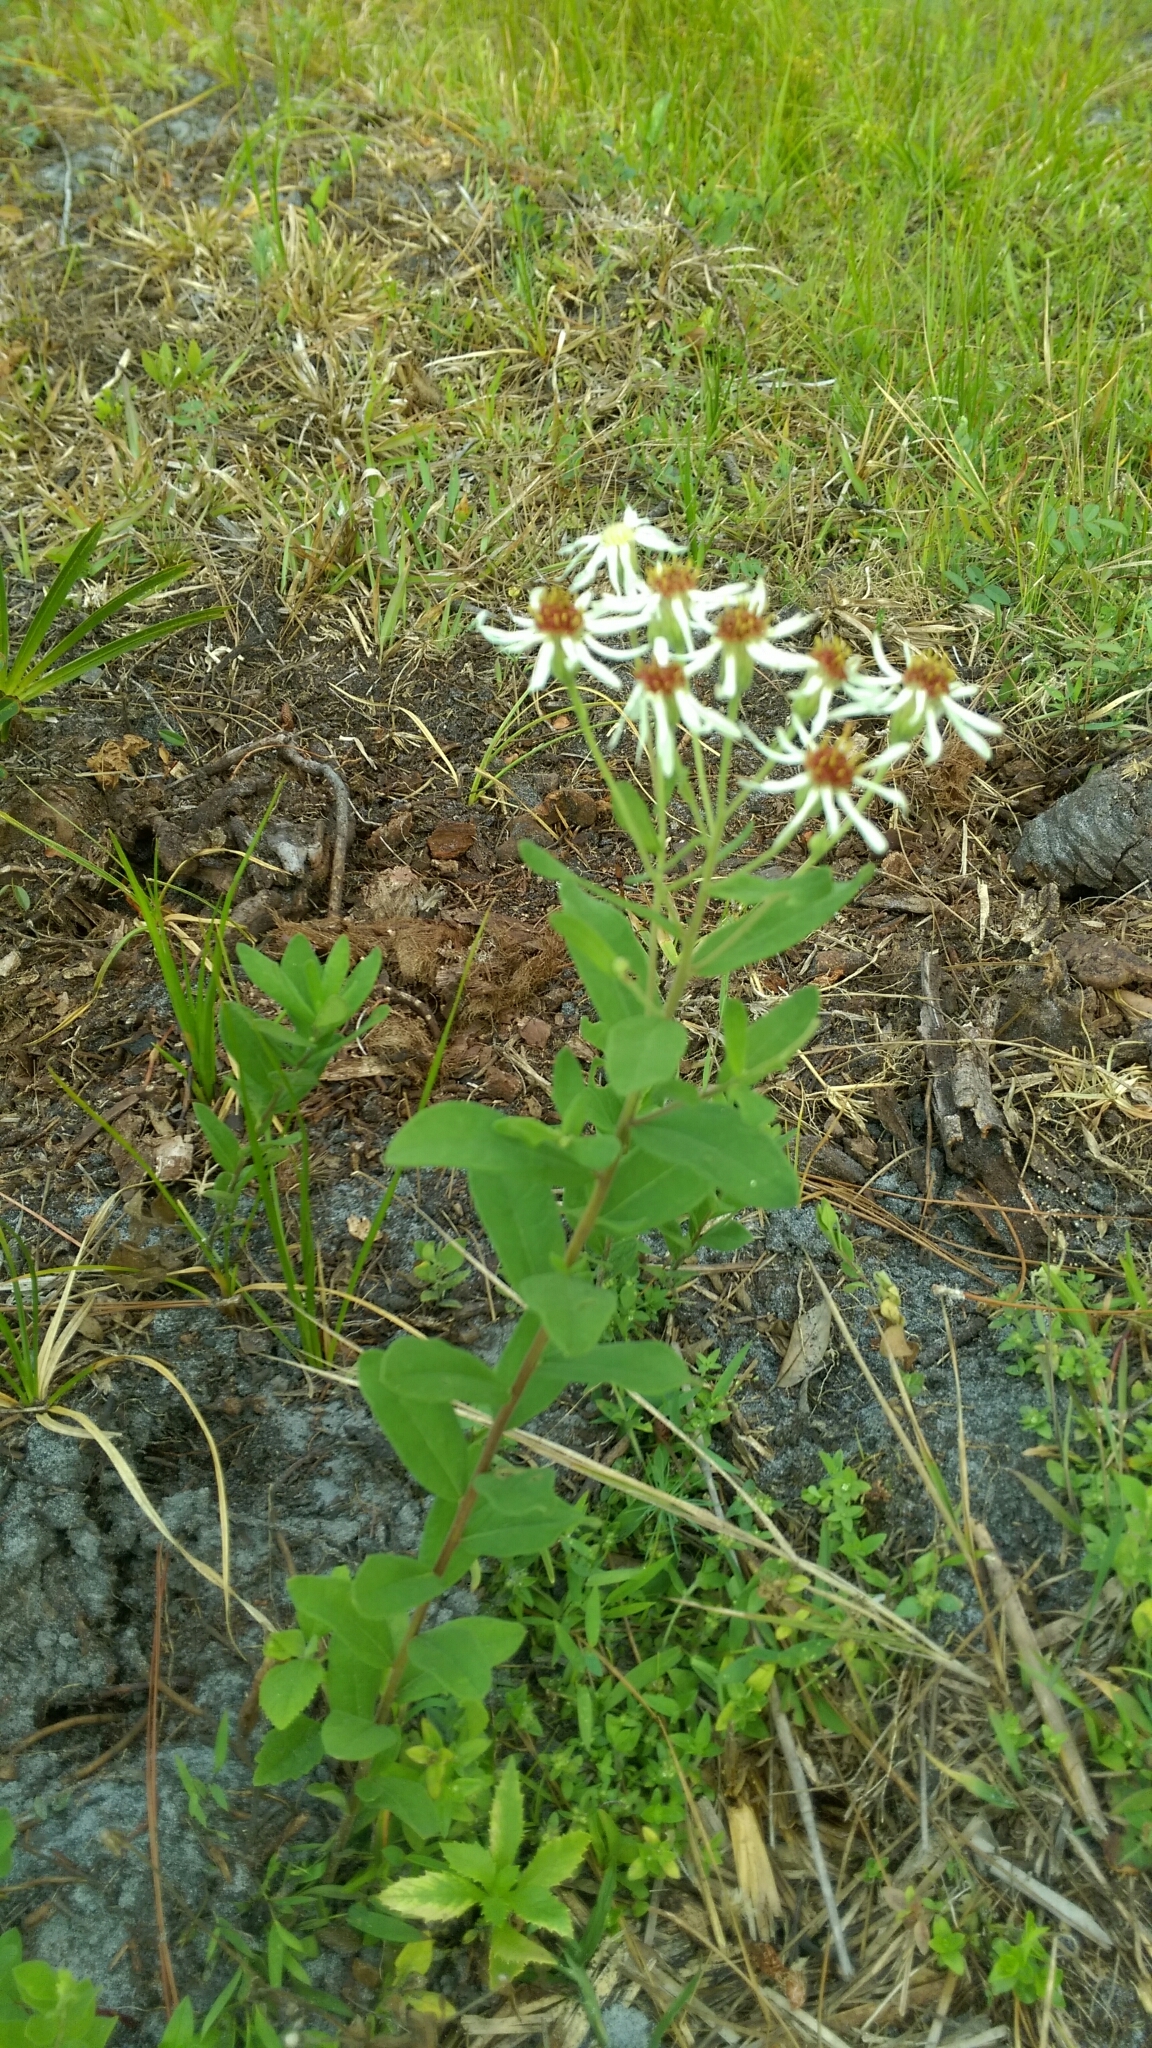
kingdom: Plantae
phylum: Tracheophyta
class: Magnoliopsida
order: Asterales
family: Asteraceae
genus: Oclemena
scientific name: Oclemena reticulata
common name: Pinebarren aster
